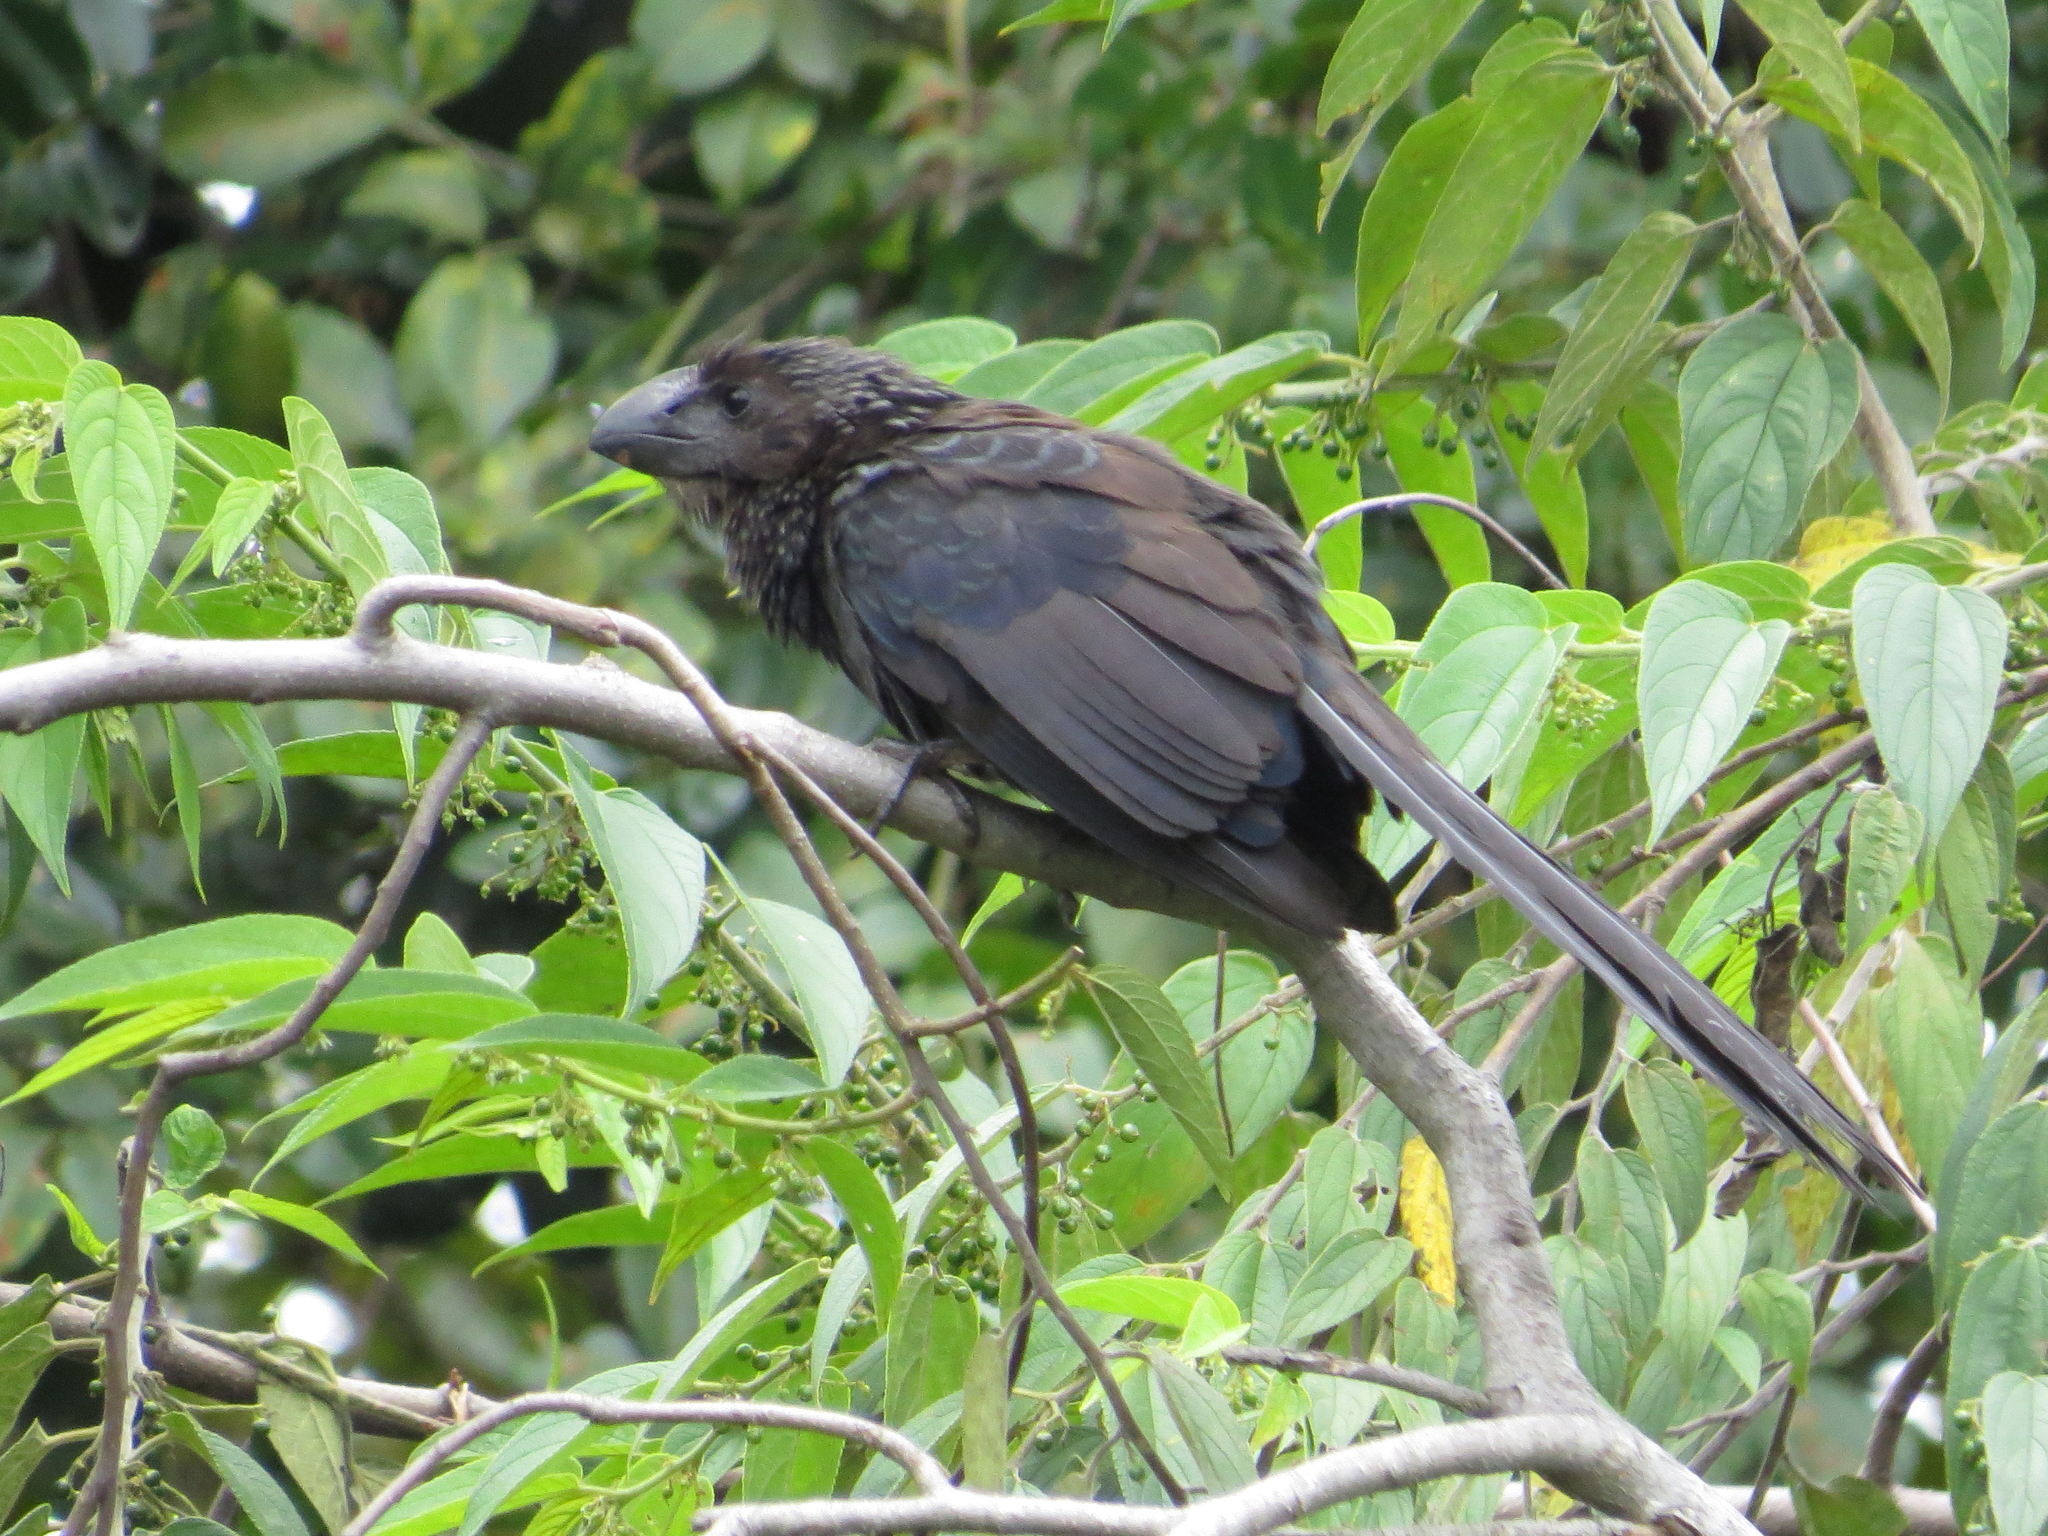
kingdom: Animalia
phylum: Chordata
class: Aves
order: Cuculiformes
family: Cuculidae
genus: Crotophaga
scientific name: Crotophaga ani
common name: Smooth-billed ani
